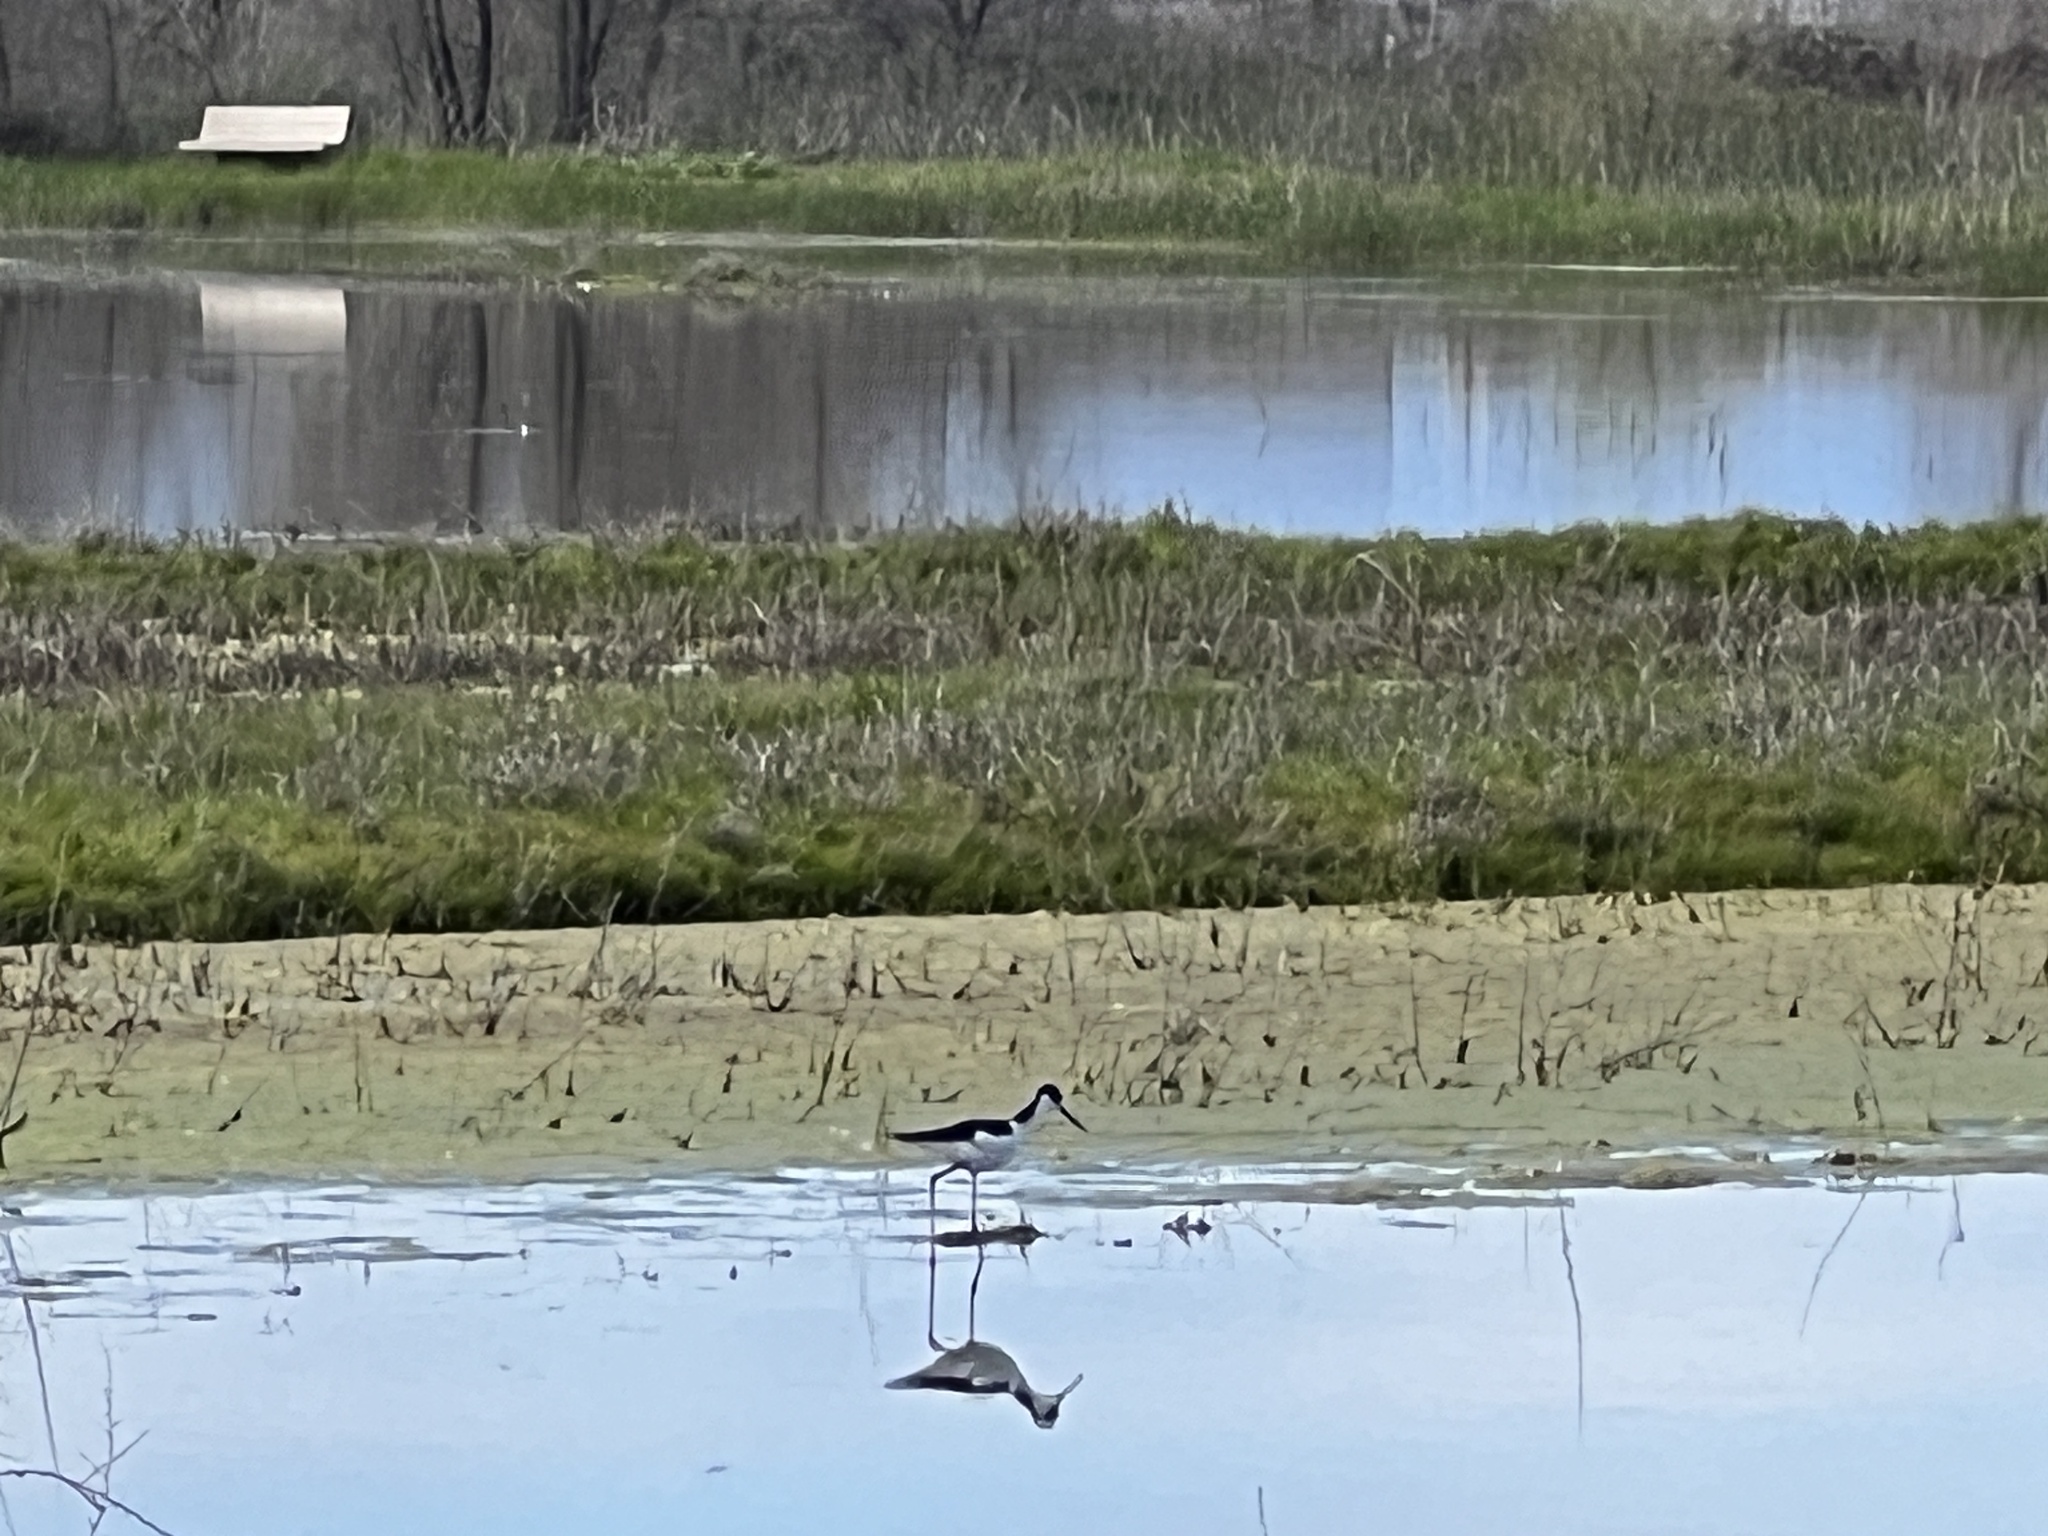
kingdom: Animalia
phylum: Chordata
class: Aves
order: Charadriiformes
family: Recurvirostridae
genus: Himantopus
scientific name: Himantopus mexicanus
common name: Black-necked stilt
